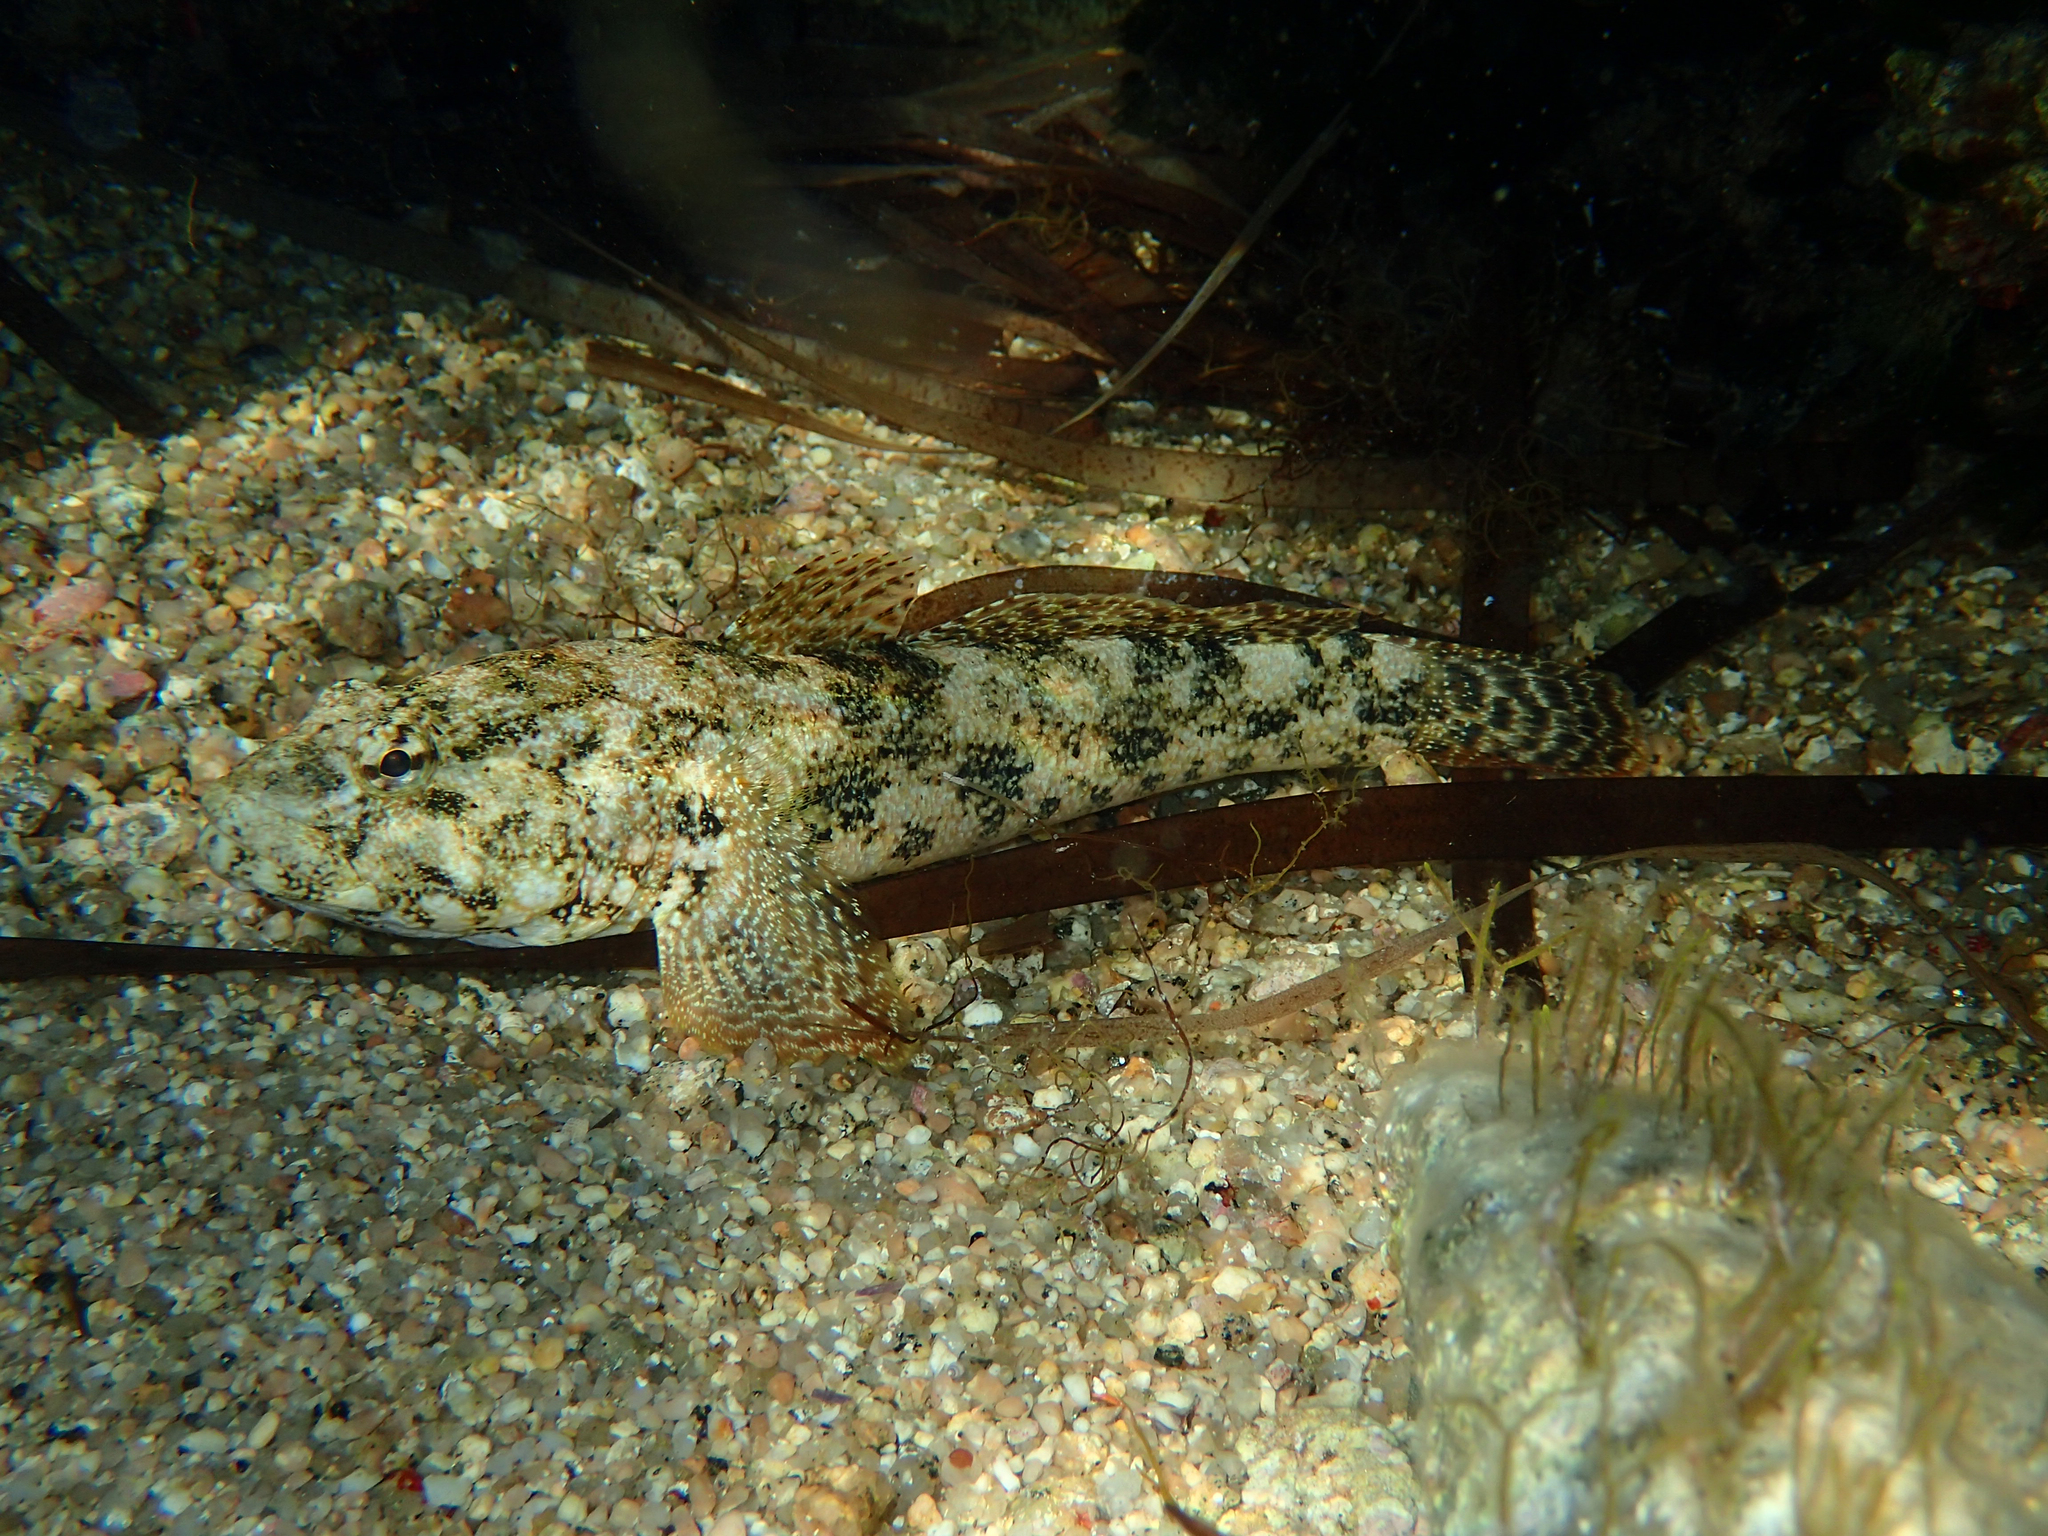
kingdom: Animalia
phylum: Chordata
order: Perciformes
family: Gobiidae
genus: Gobius
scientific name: Gobius cobitis
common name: Giant goby
